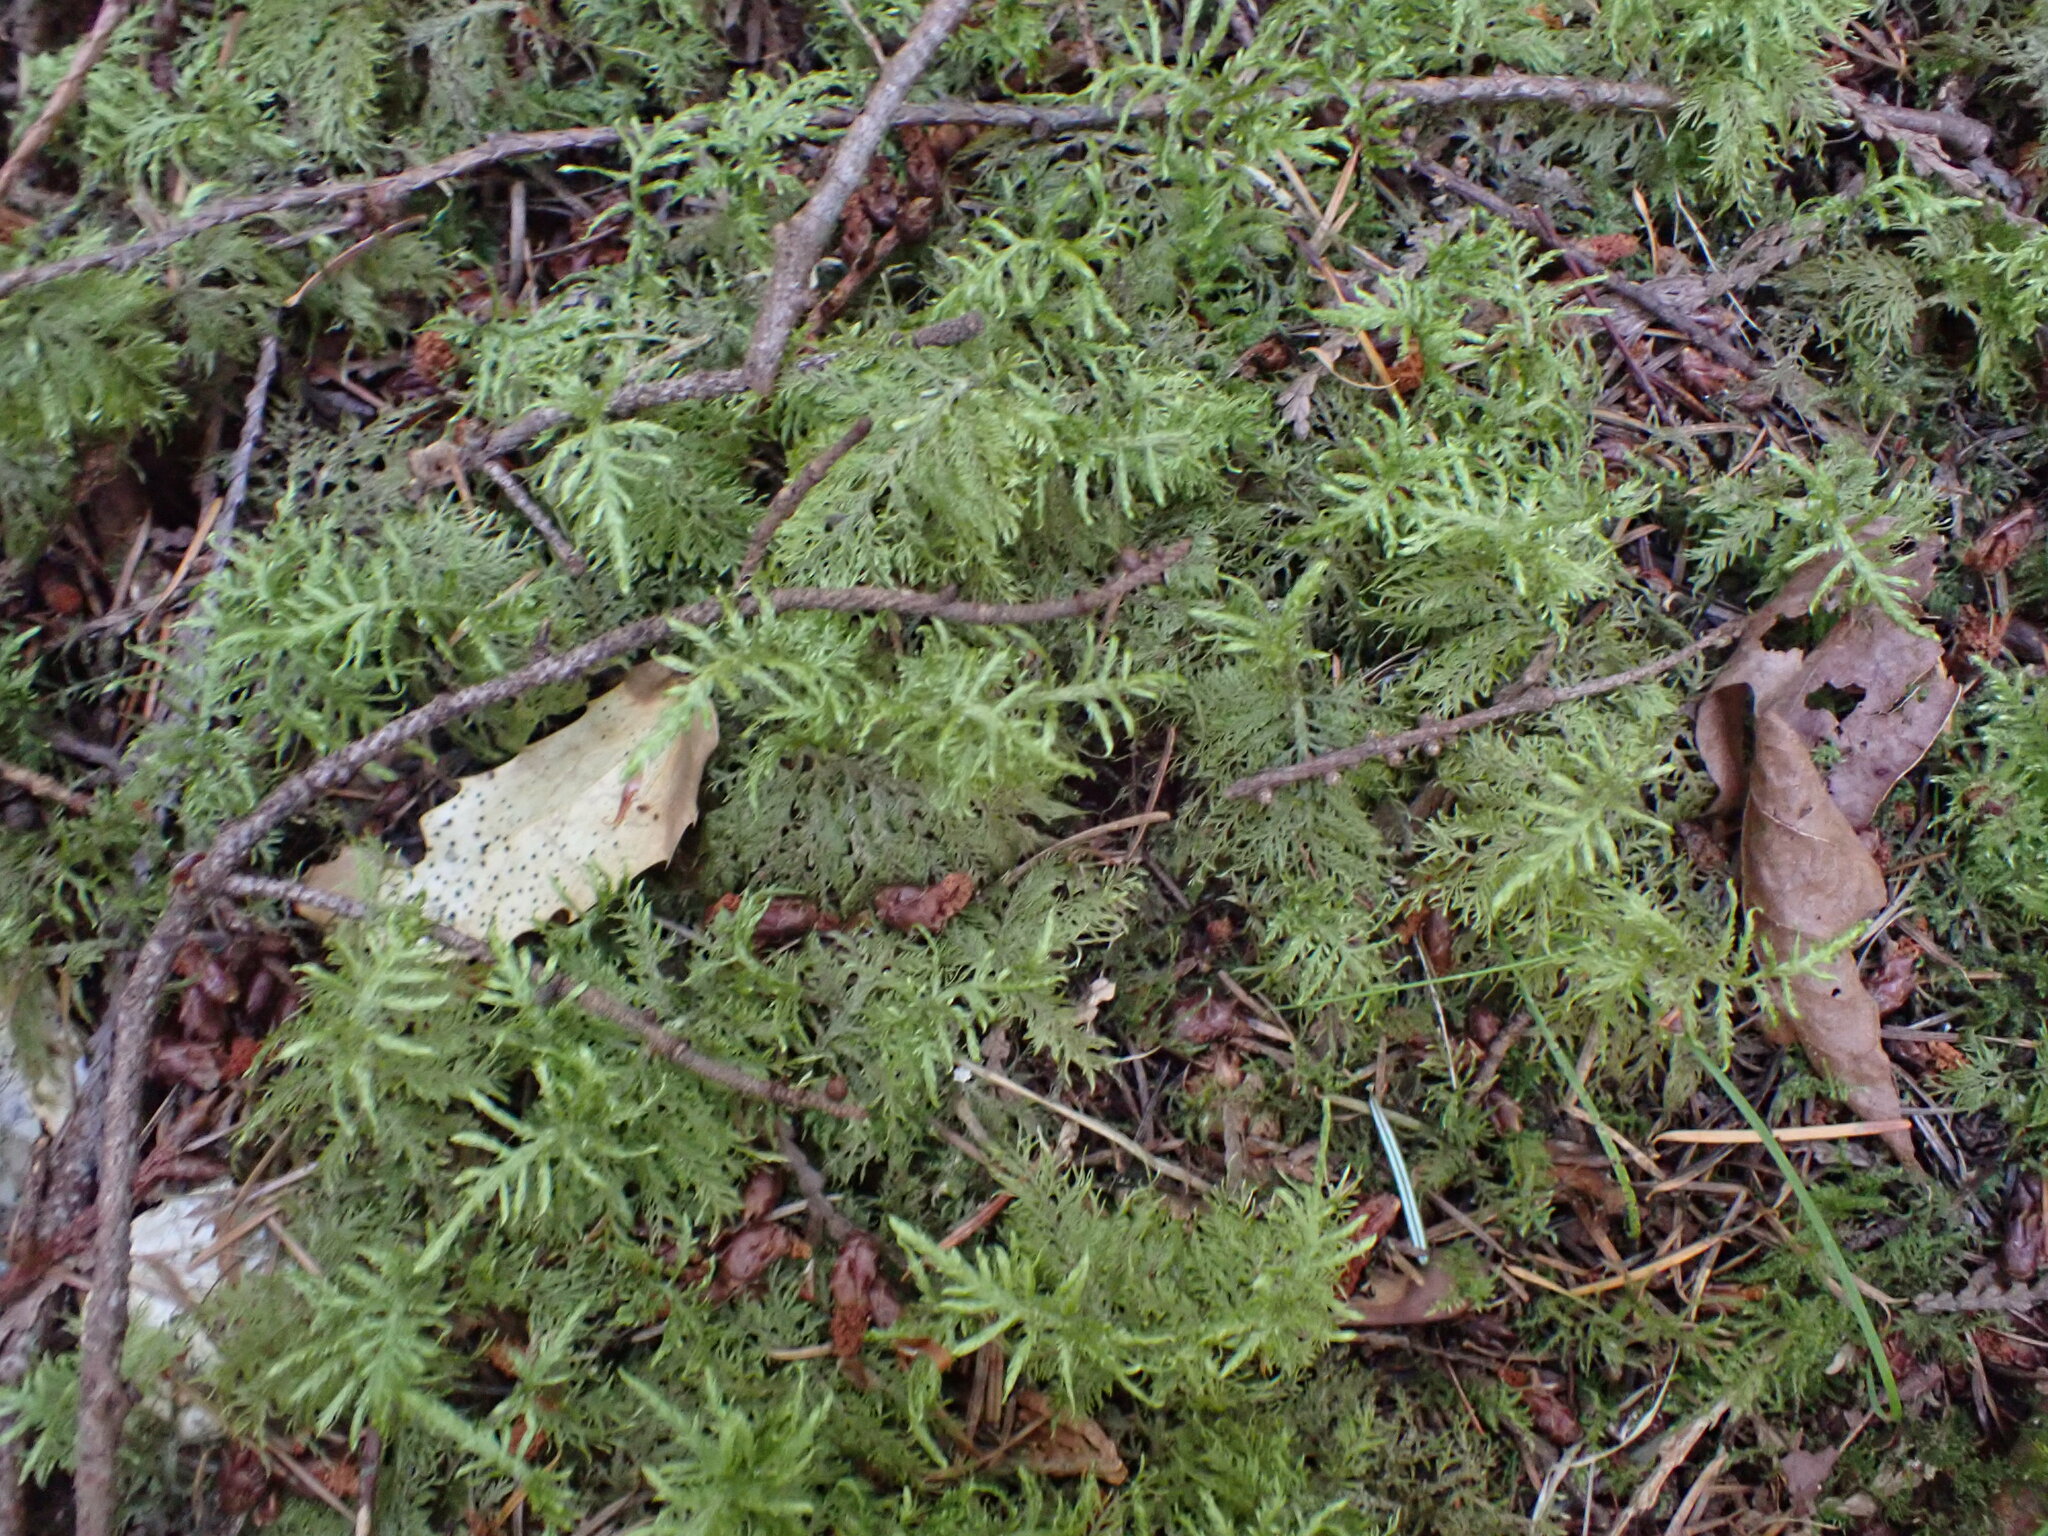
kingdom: Plantae
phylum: Bryophyta
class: Bryopsida
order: Hypnales
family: Hylocomiaceae
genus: Hylocomium
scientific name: Hylocomium splendens
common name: Stairstep moss
